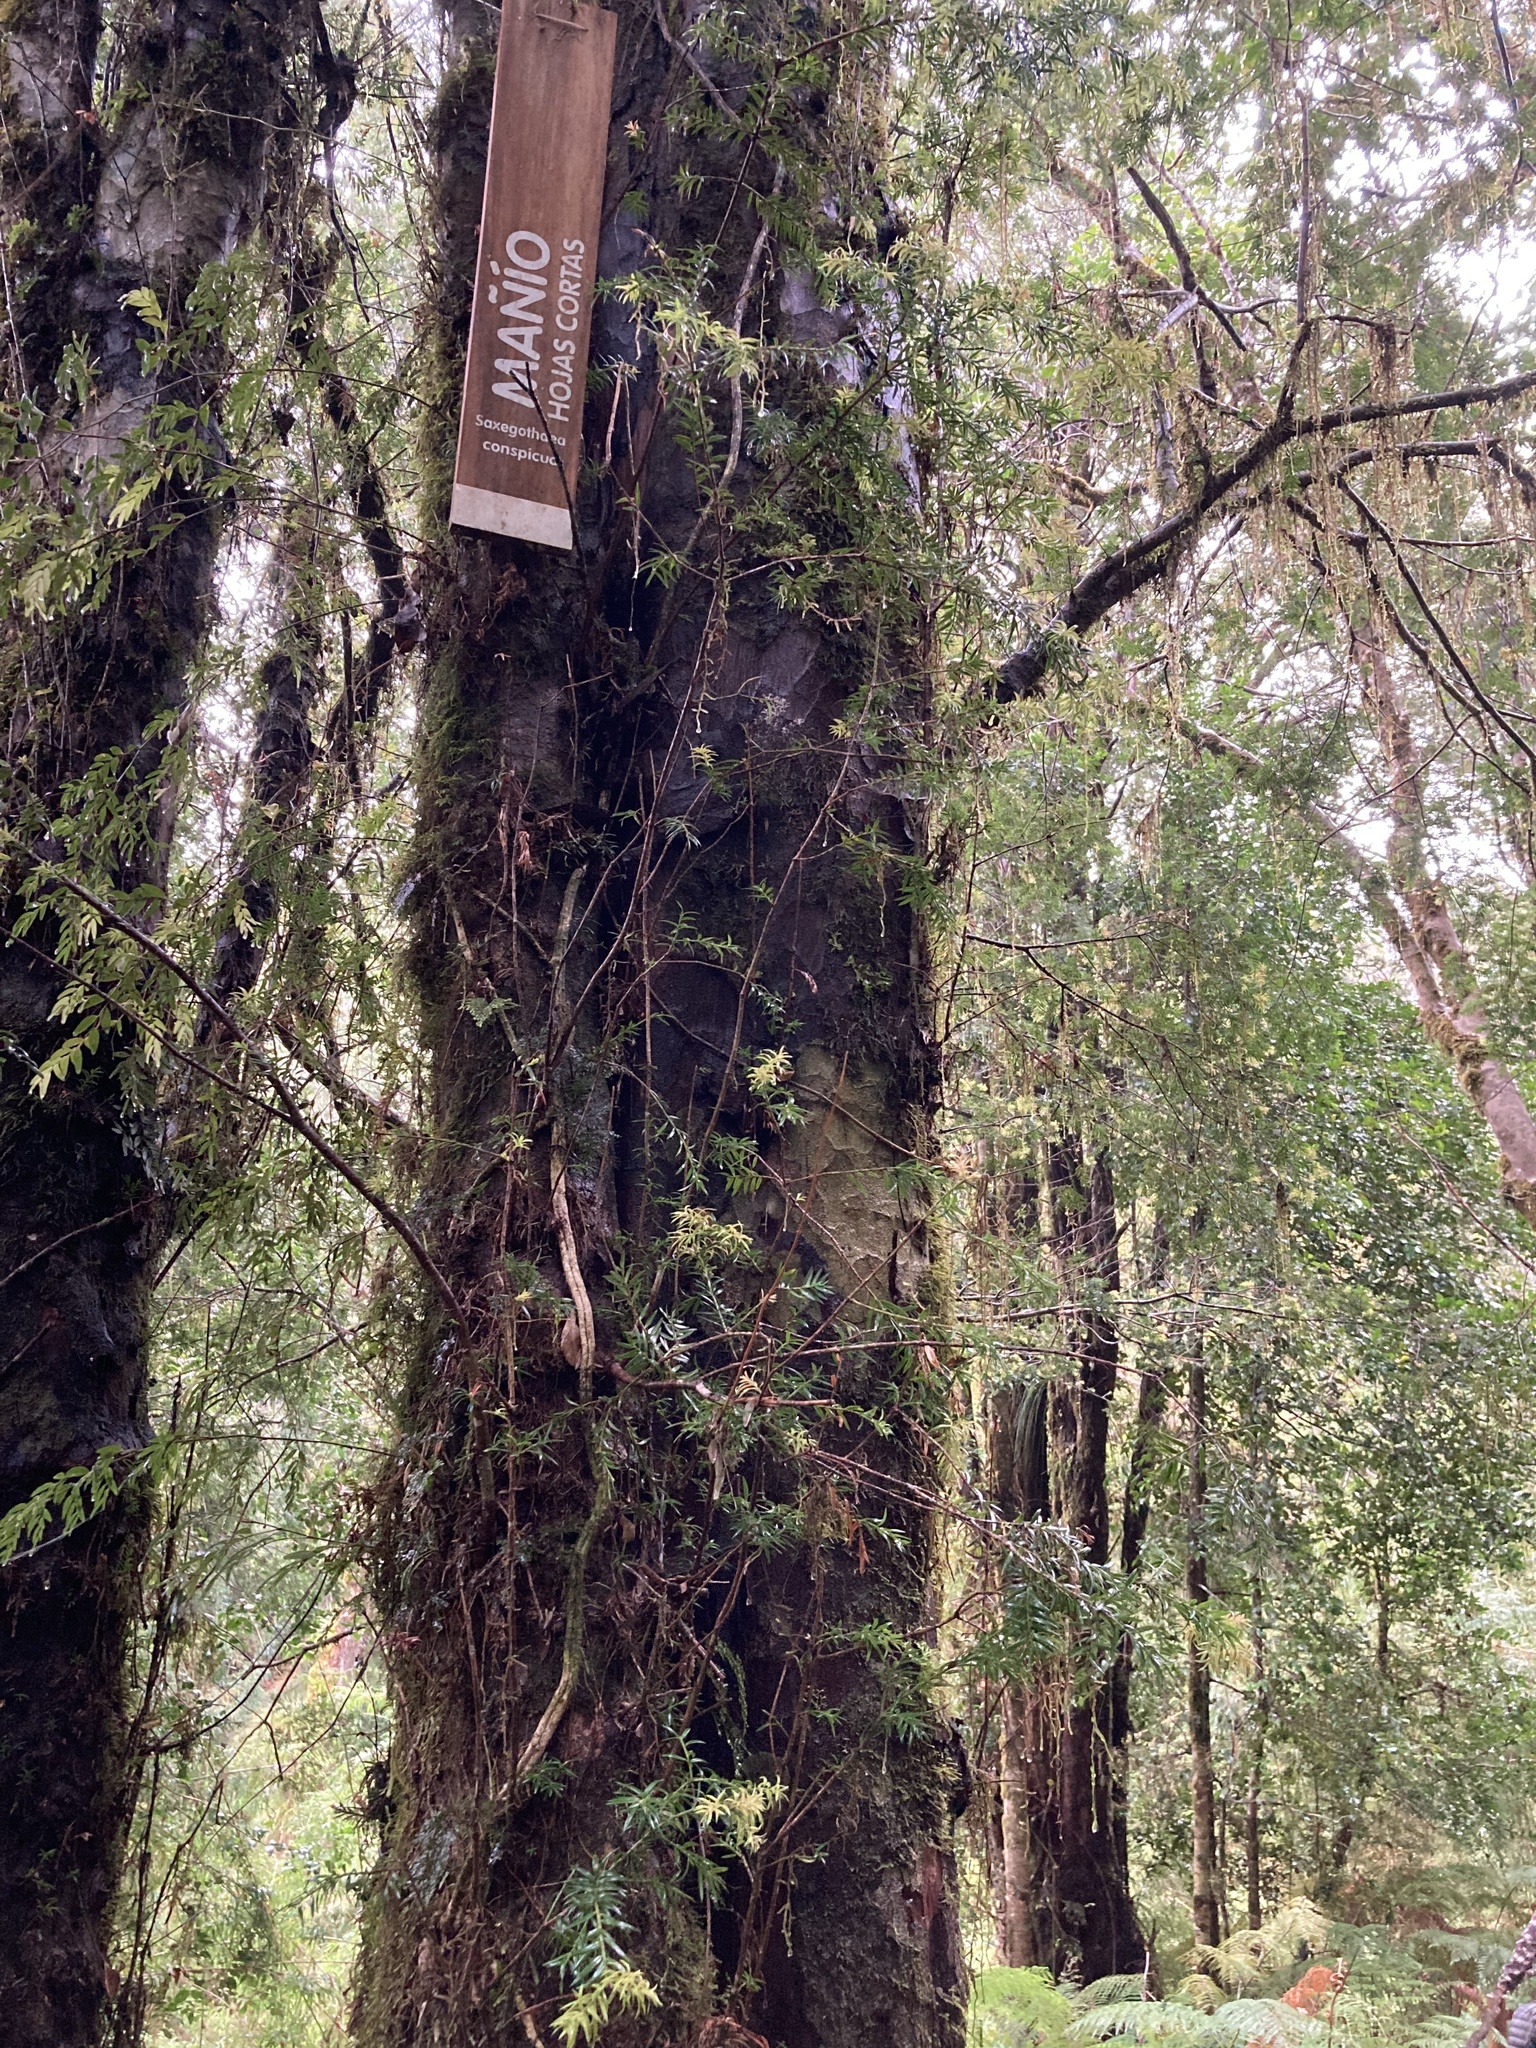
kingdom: Plantae
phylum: Tracheophyta
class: Pinopsida
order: Pinales
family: Podocarpaceae
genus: Saxegothaea
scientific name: Saxegothaea conspicua
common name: Prince albert's yew
